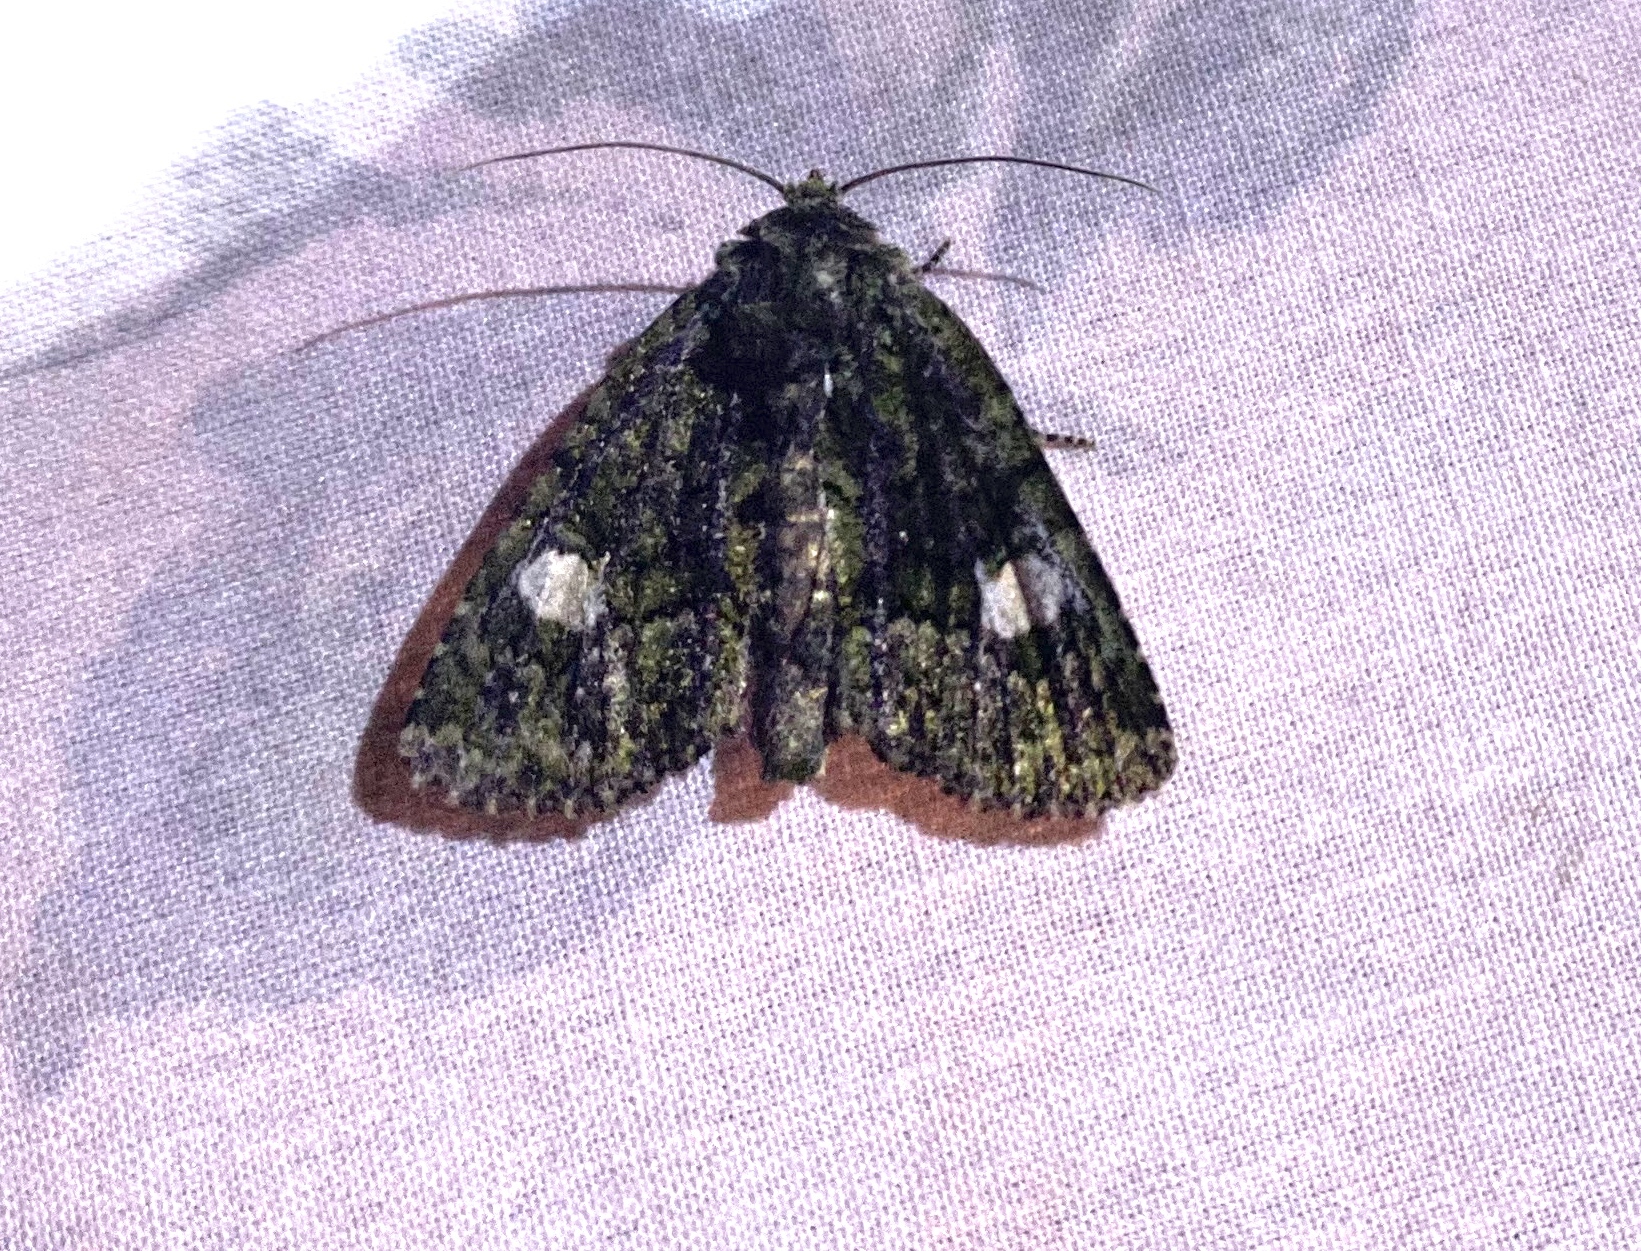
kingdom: Animalia
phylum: Arthropoda
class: Insecta
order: Lepidoptera
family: Noctuidae
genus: Phosphila
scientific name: Phosphila miselioides
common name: Spotted phosphila moth
